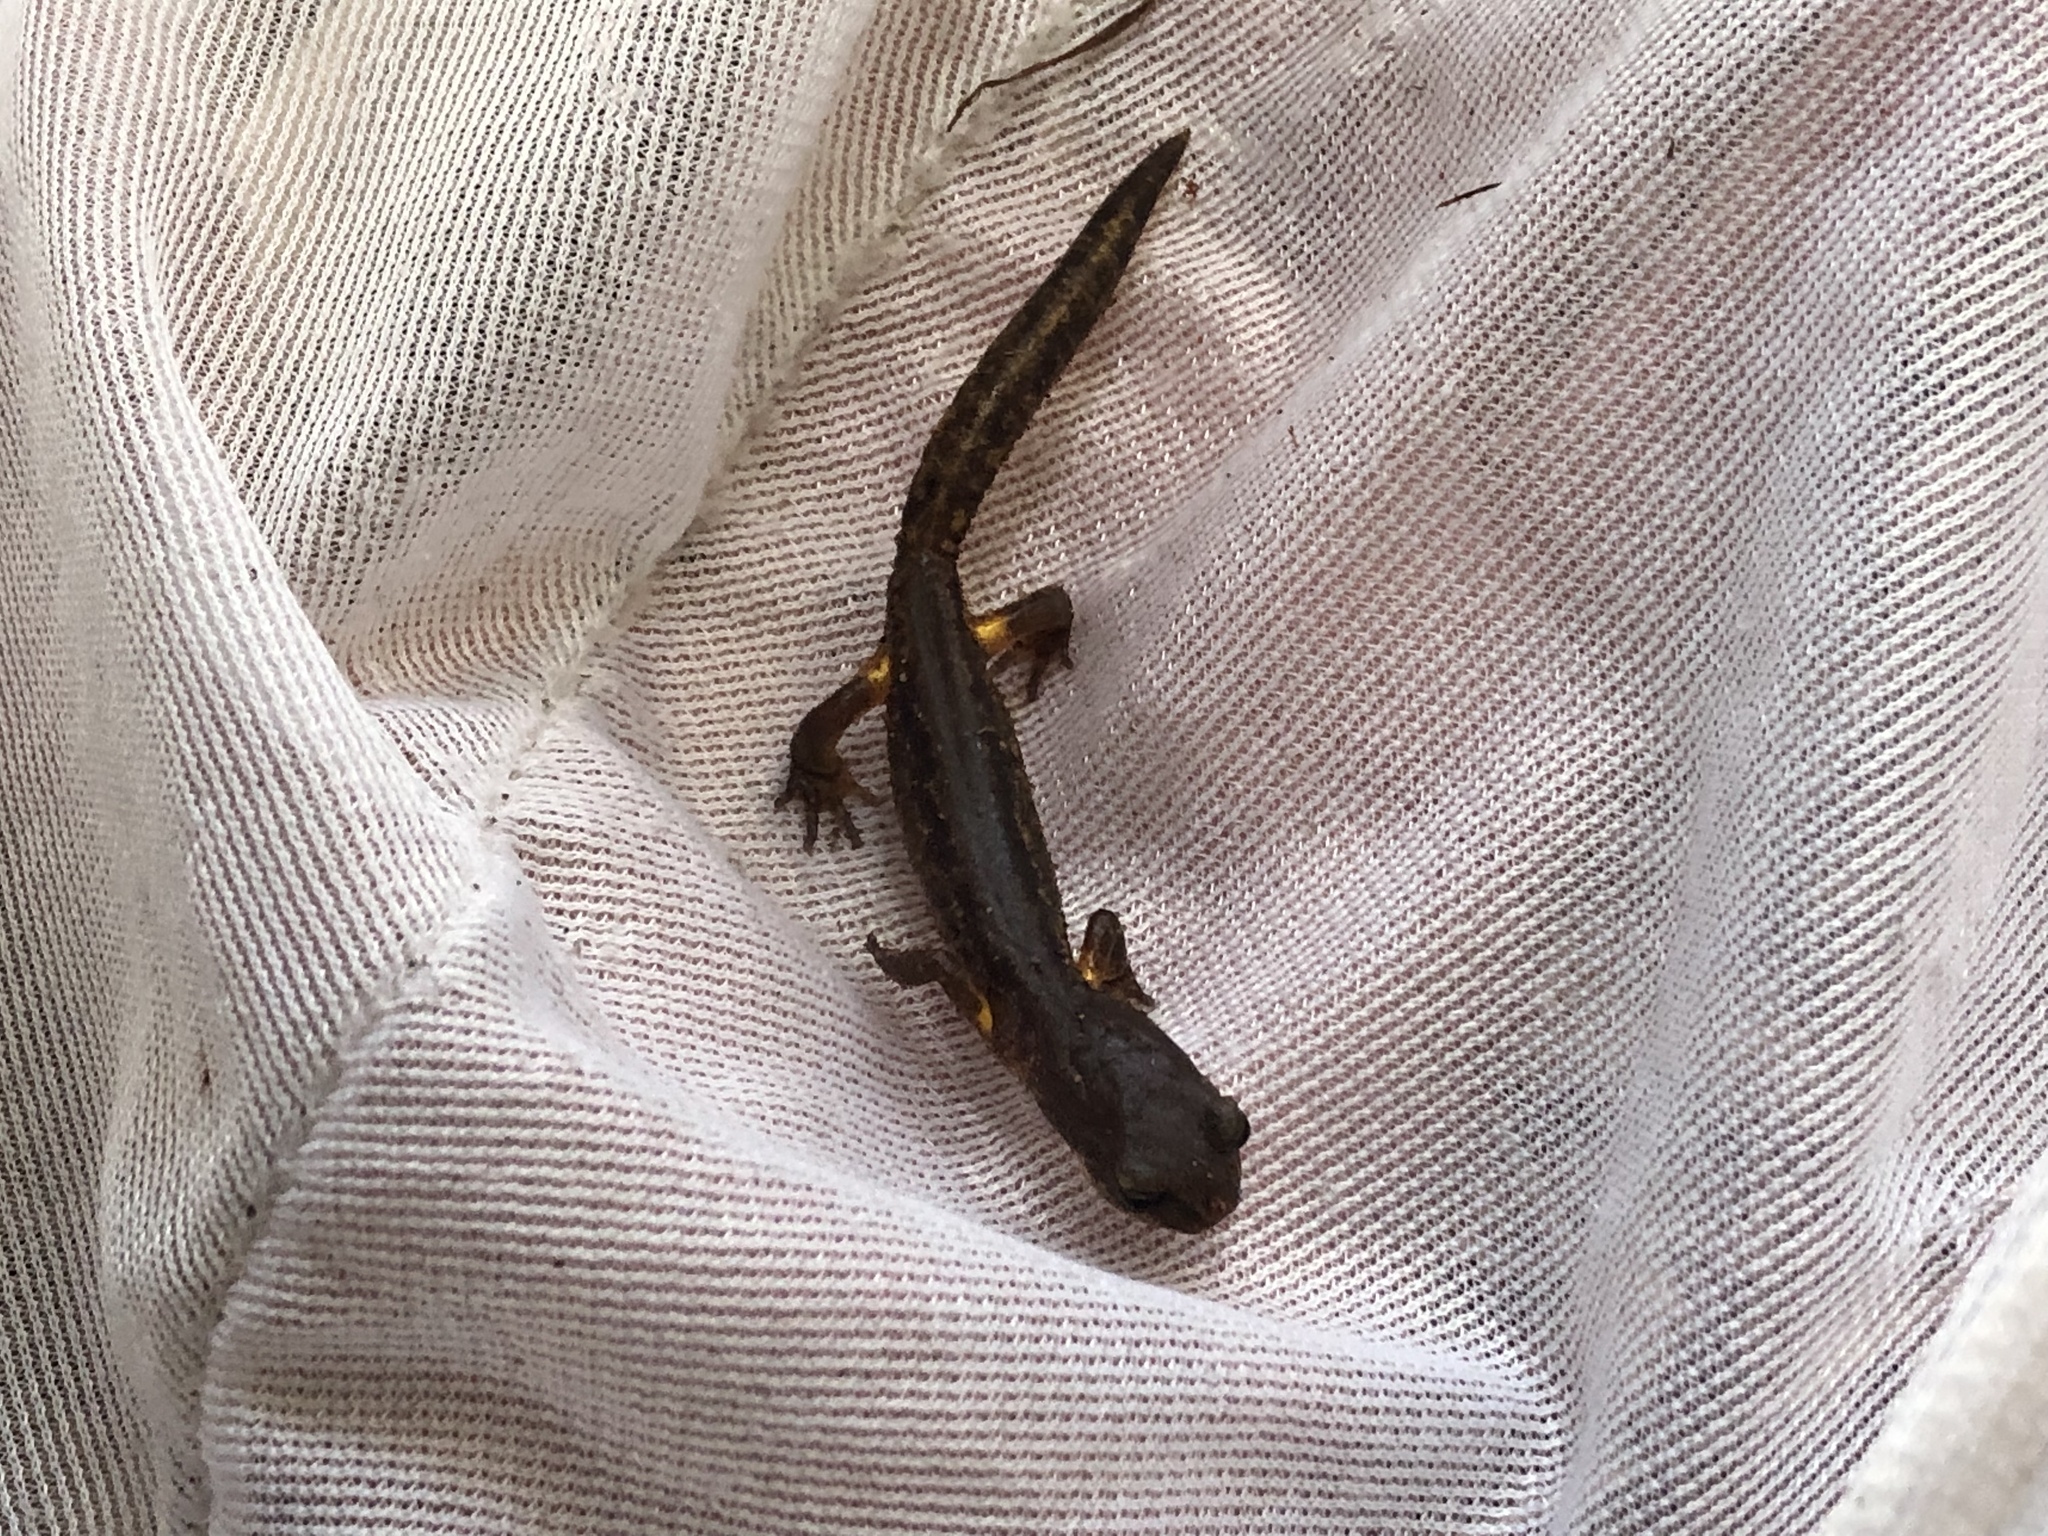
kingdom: Animalia
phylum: Chordata
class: Amphibia
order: Caudata
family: Plethodontidae
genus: Ensatina
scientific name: Ensatina eschscholtzii
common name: Ensatina
